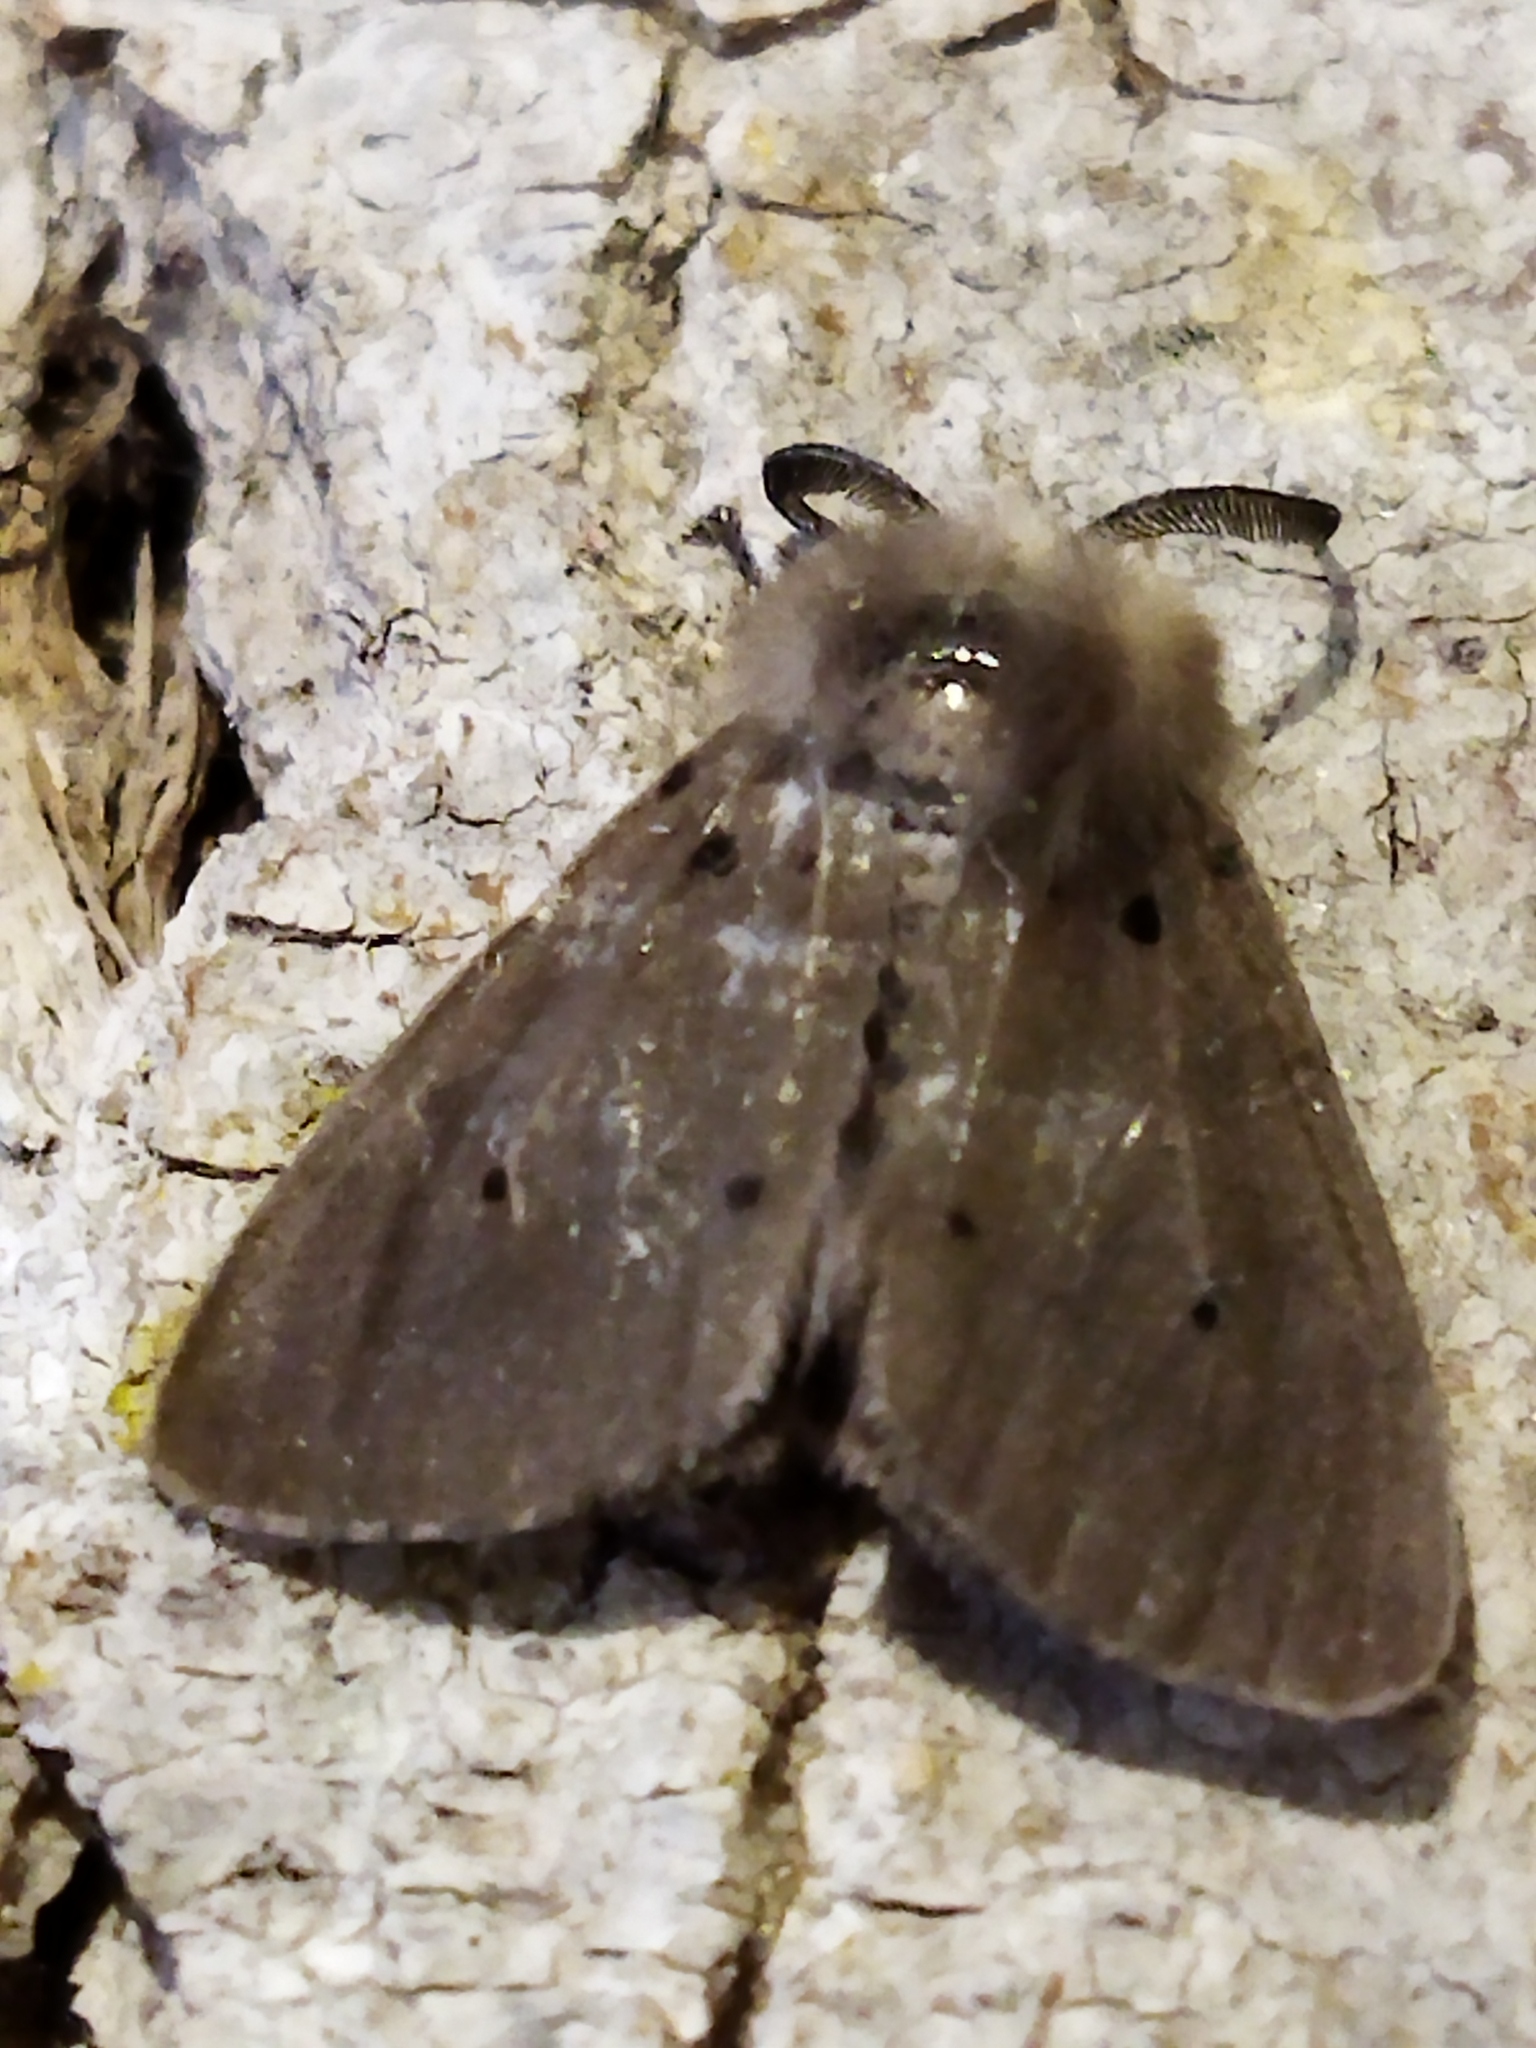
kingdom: Animalia
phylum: Arthropoda
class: Insecta
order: Lepidoptera
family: Erebidae
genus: Diaphora
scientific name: Diaphora mendica
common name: Muslin moth
